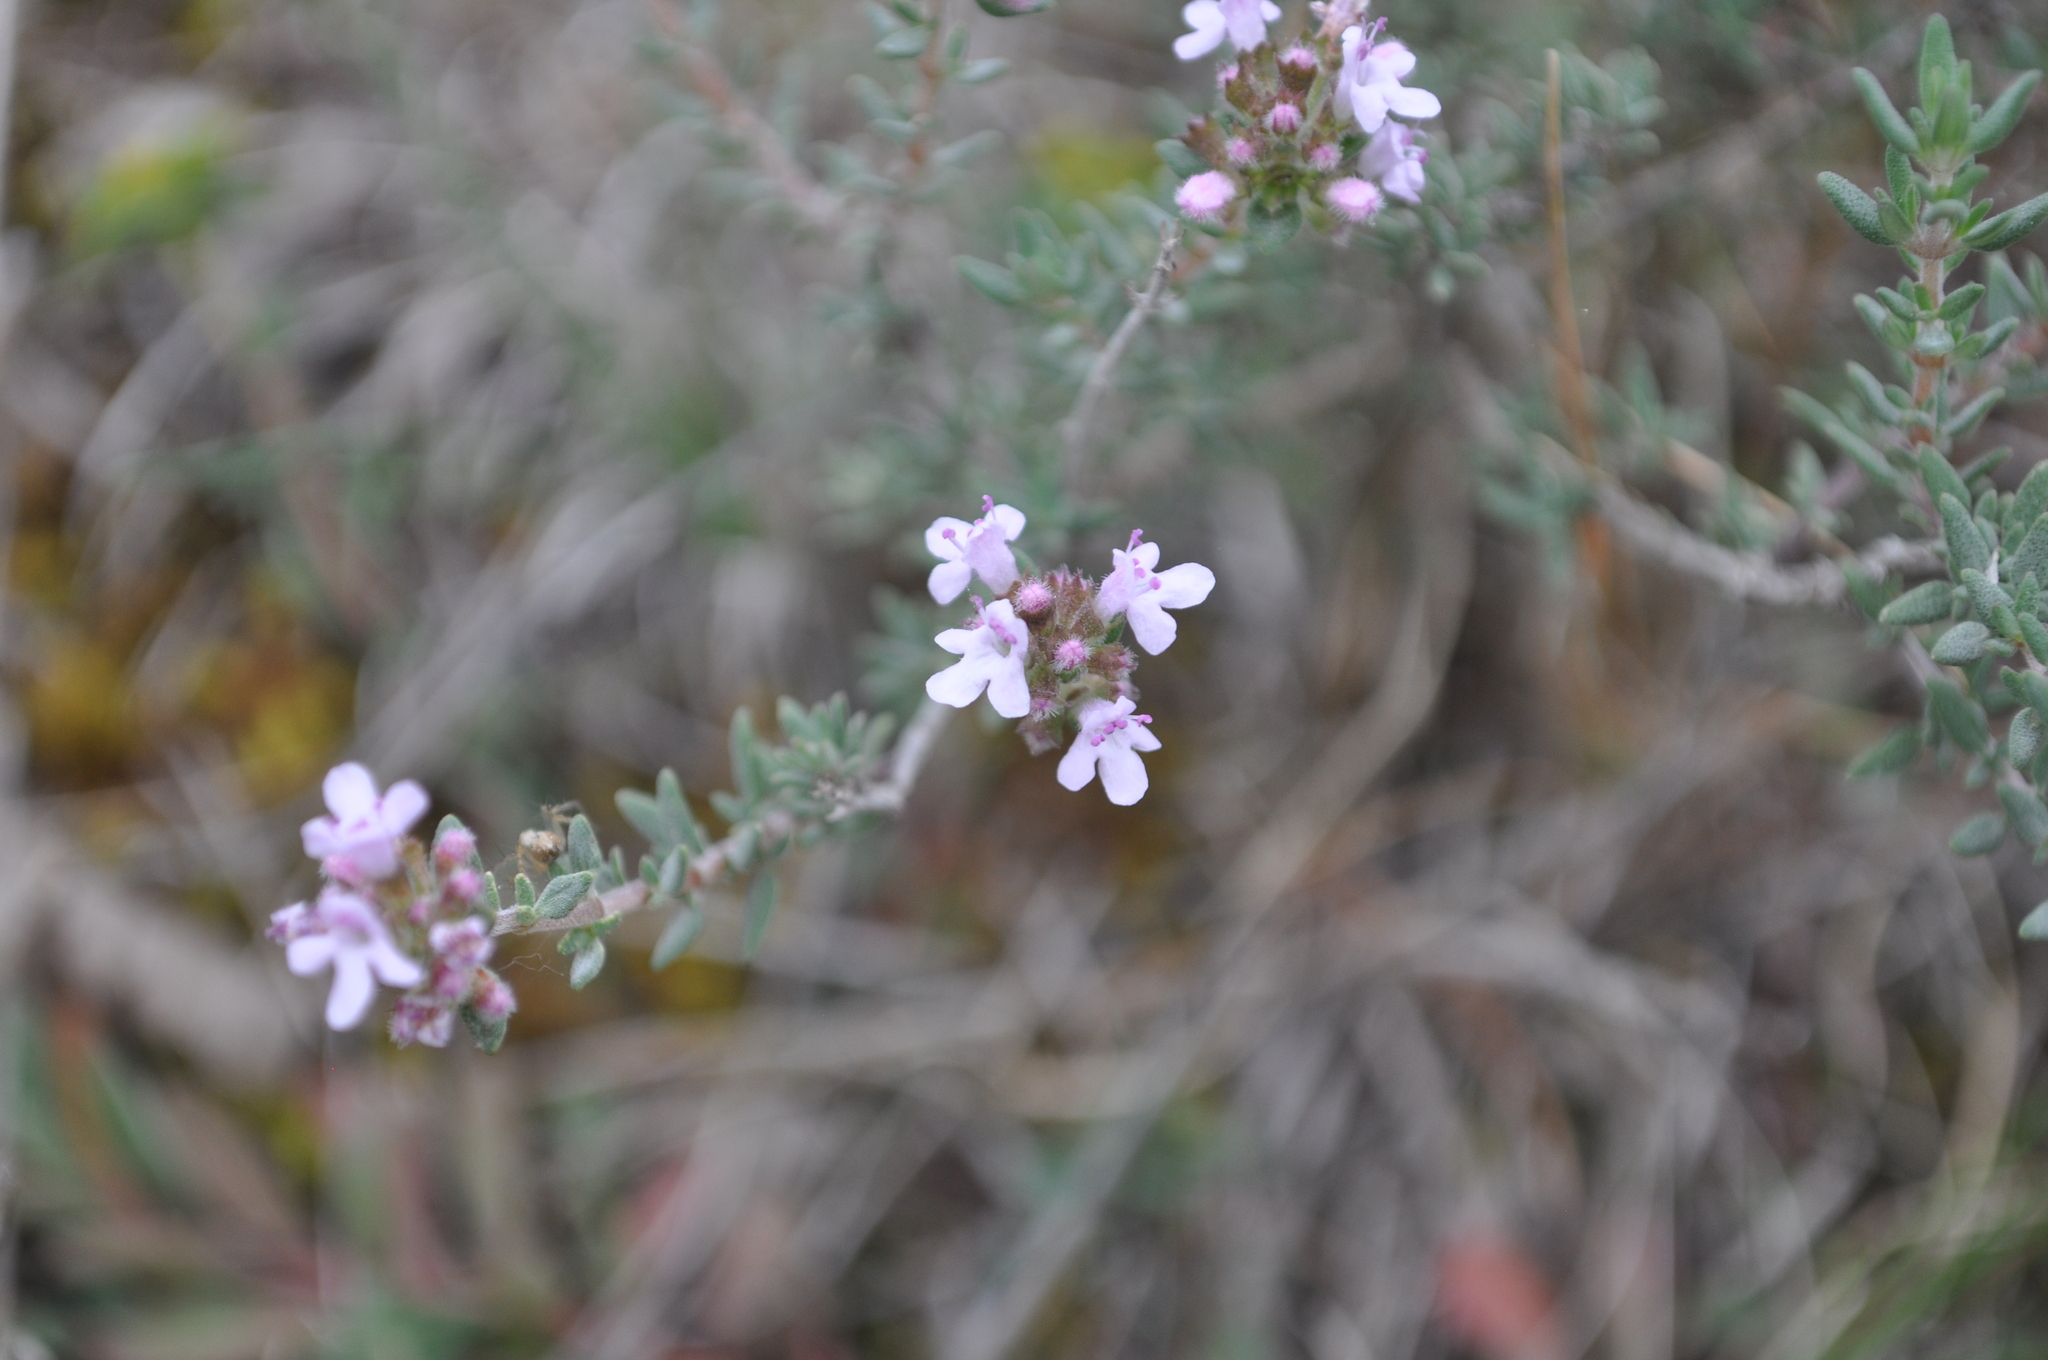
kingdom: Plantae
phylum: Tracheophyta
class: Magnoliopsida
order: Lamiales
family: Lamiaceae
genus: Thymus
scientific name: Thymus vulgaris
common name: Garden thyme
